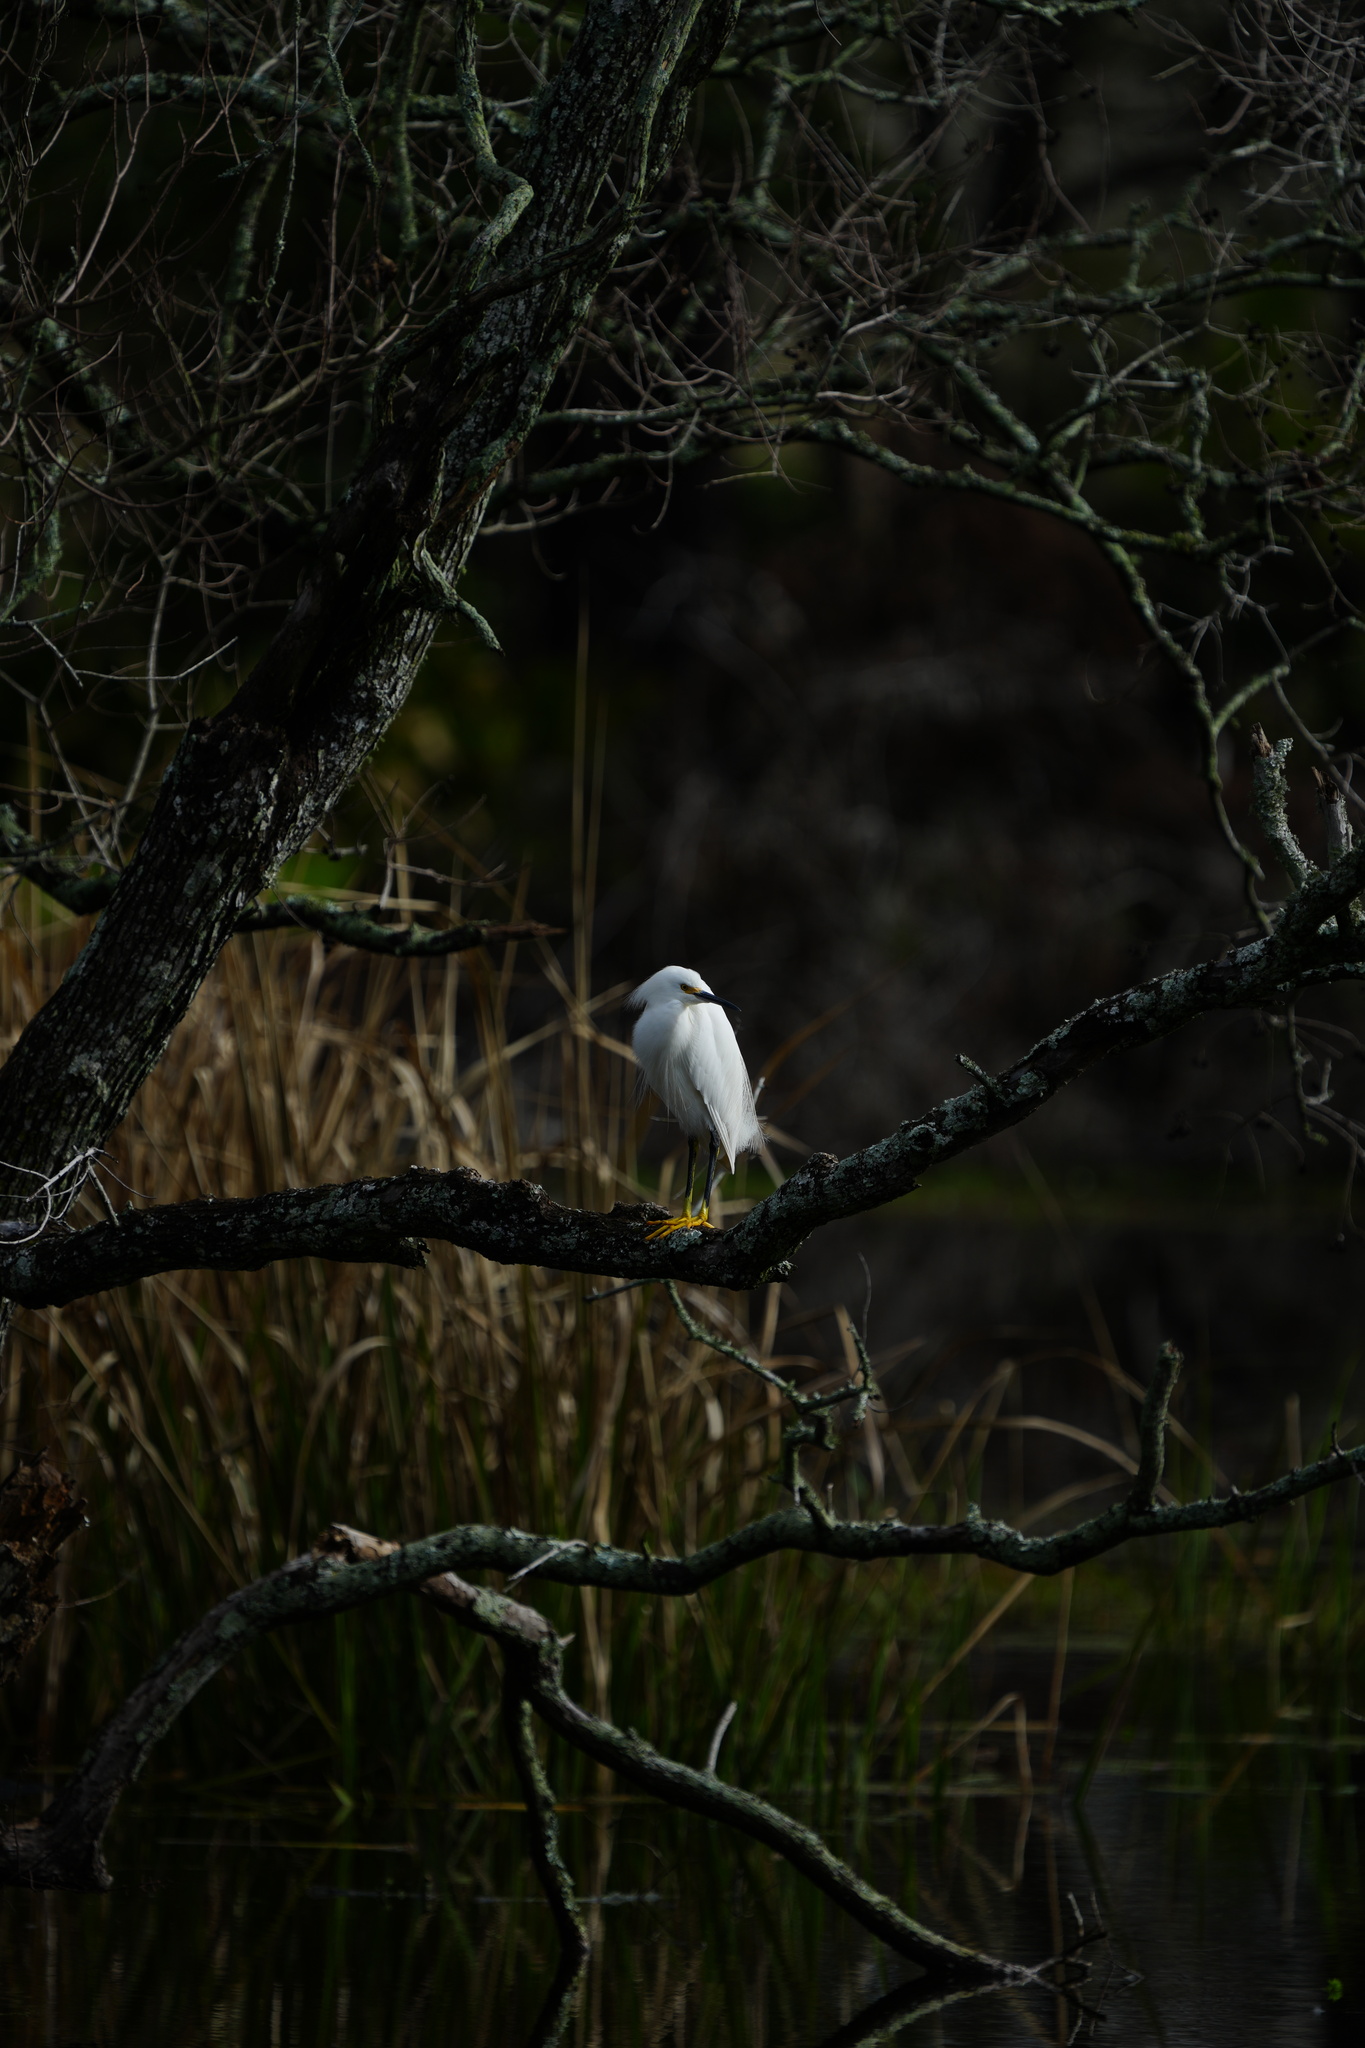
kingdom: Animalia
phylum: Chordata
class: Aves
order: Pelecaniformes
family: Ardeidae
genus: Egretta
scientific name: Egretta thula
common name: Snowy egret
